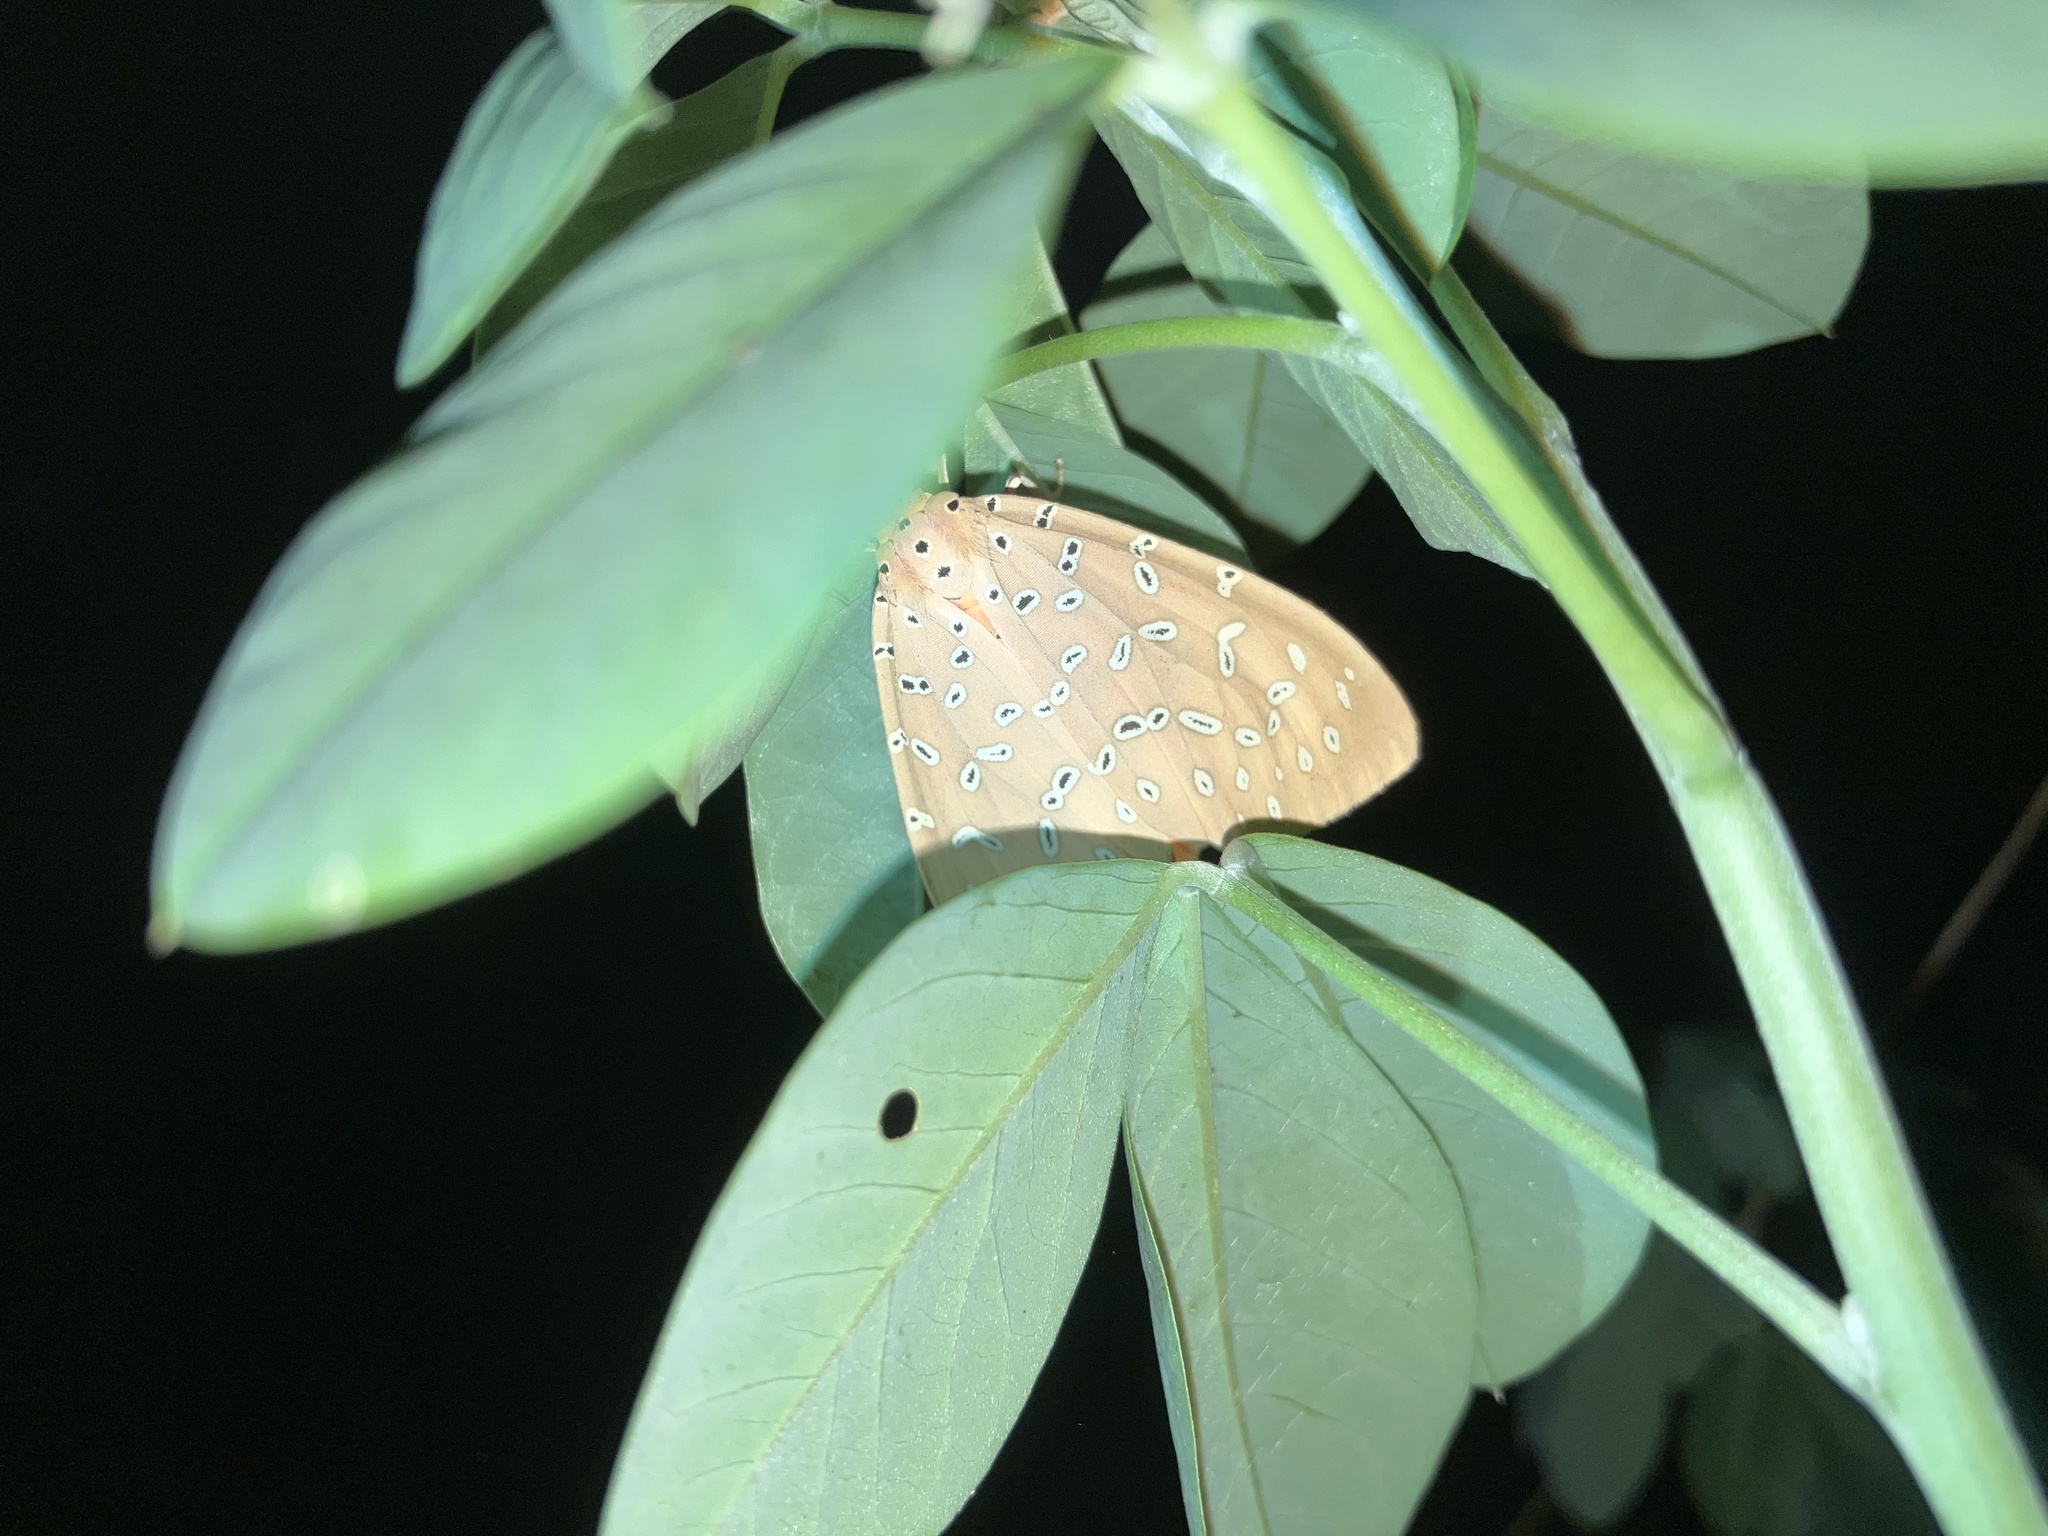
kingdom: Animalia
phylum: Arthropoda
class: Insecta
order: Lepidoptera
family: Erebidae
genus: Mangina
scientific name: Mangina argus
